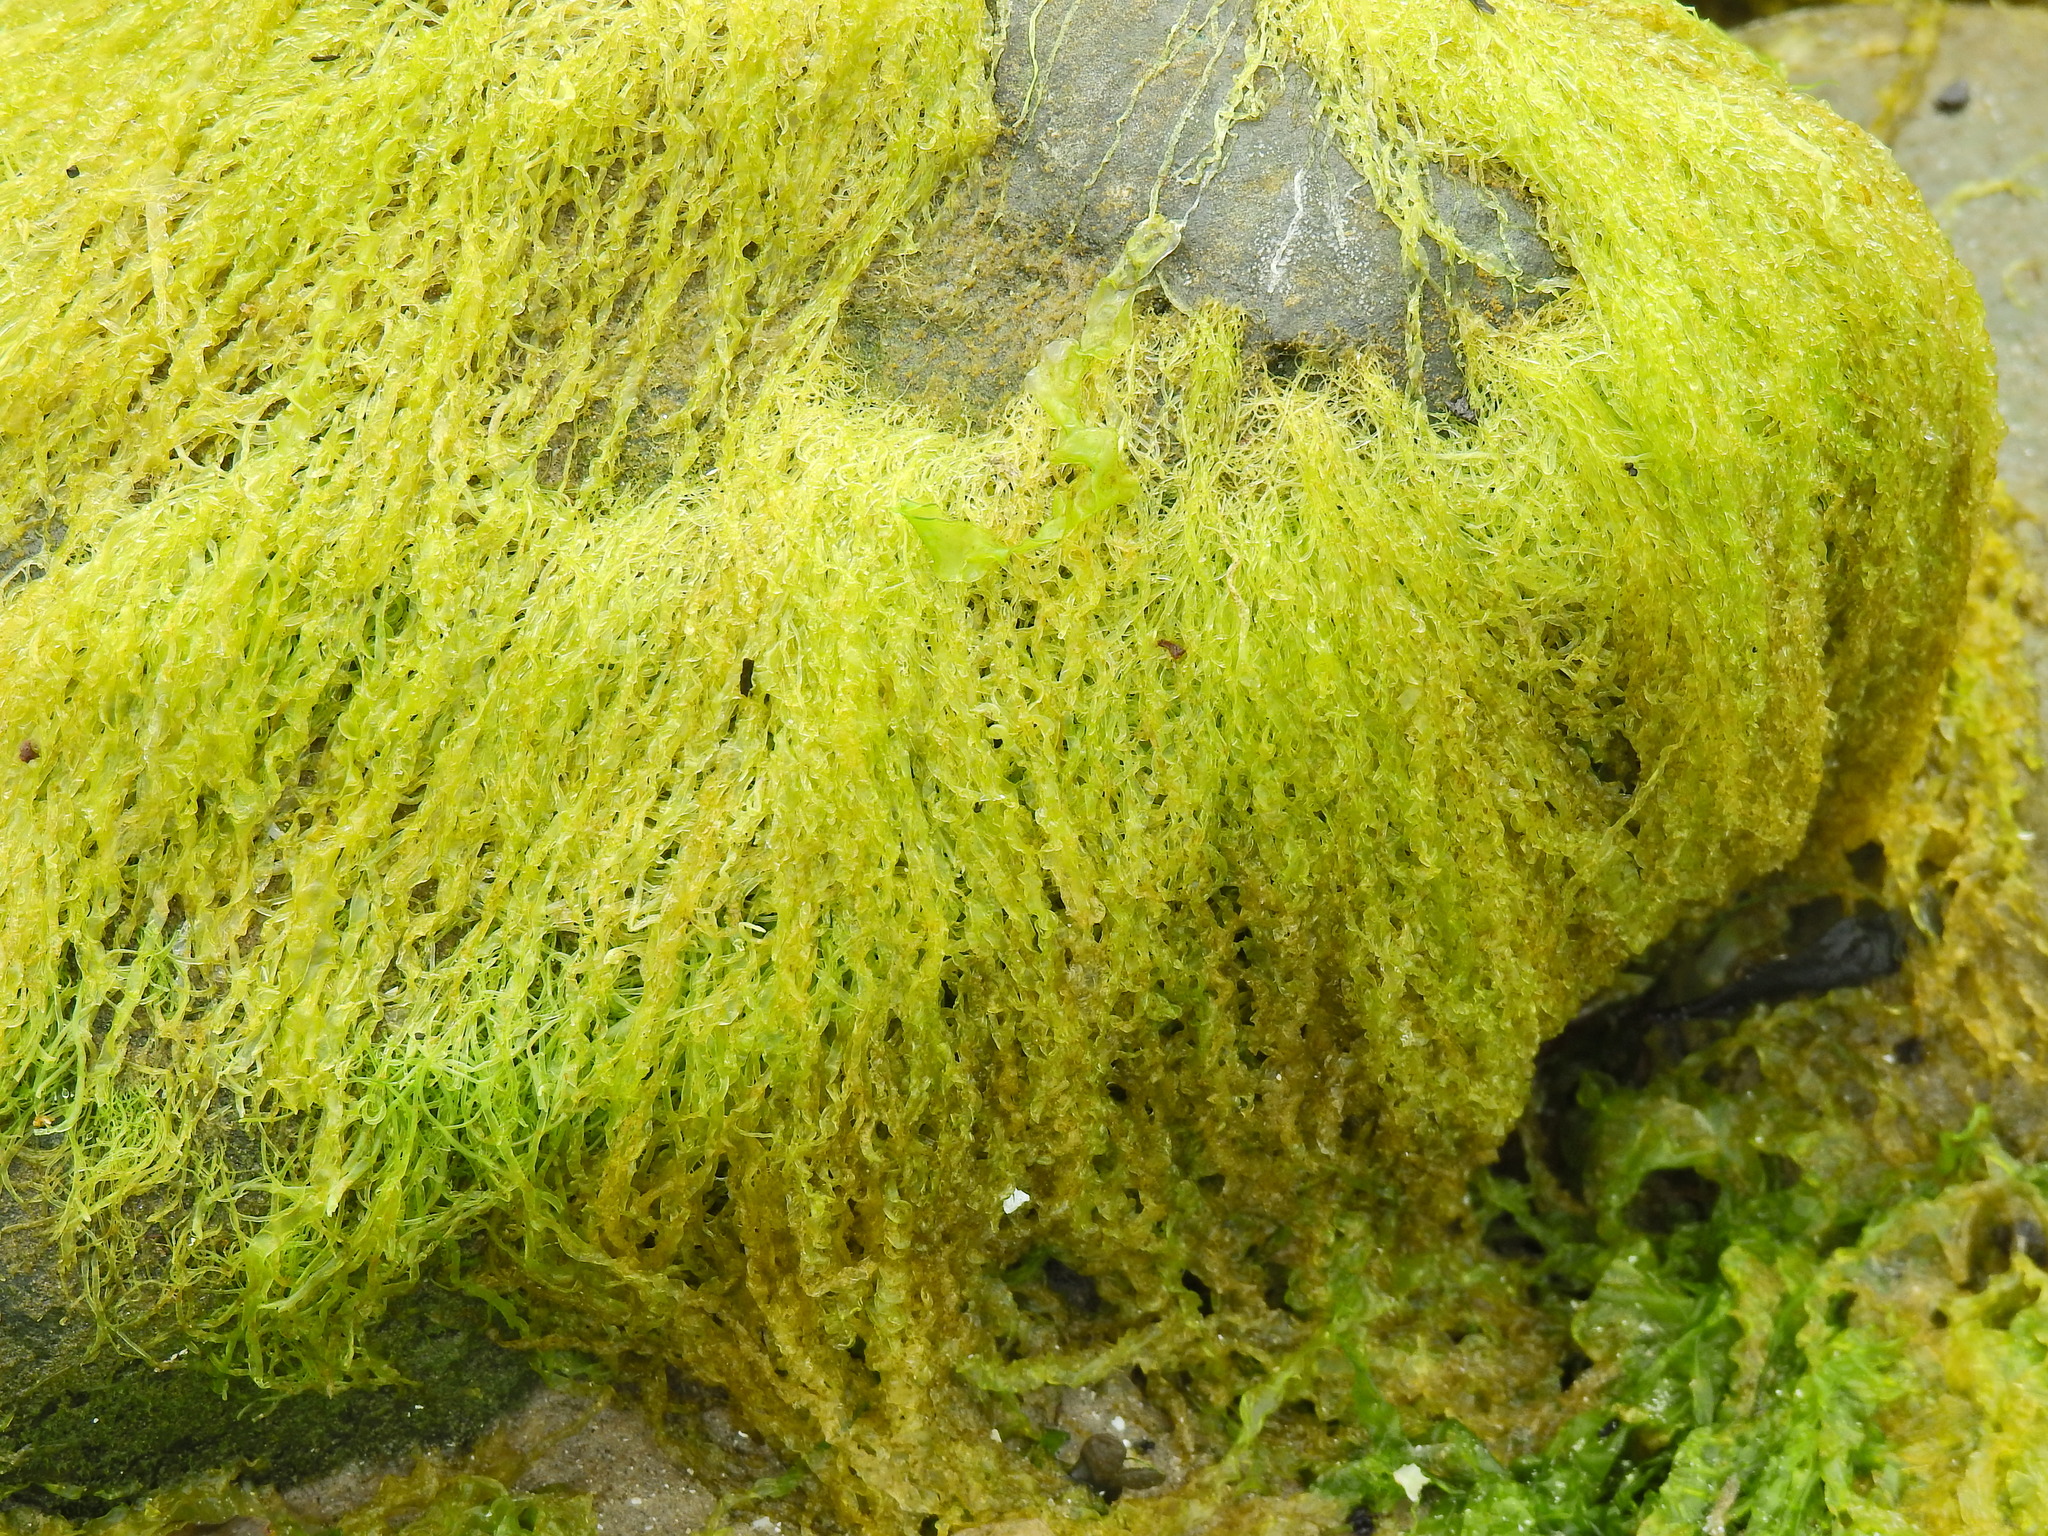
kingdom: Plantae
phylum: Chlorophyta
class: Ulvophyceae
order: Ulvales
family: Ulvaceae
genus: Ulva
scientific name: Ulva intestinalis
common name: Gut weed
